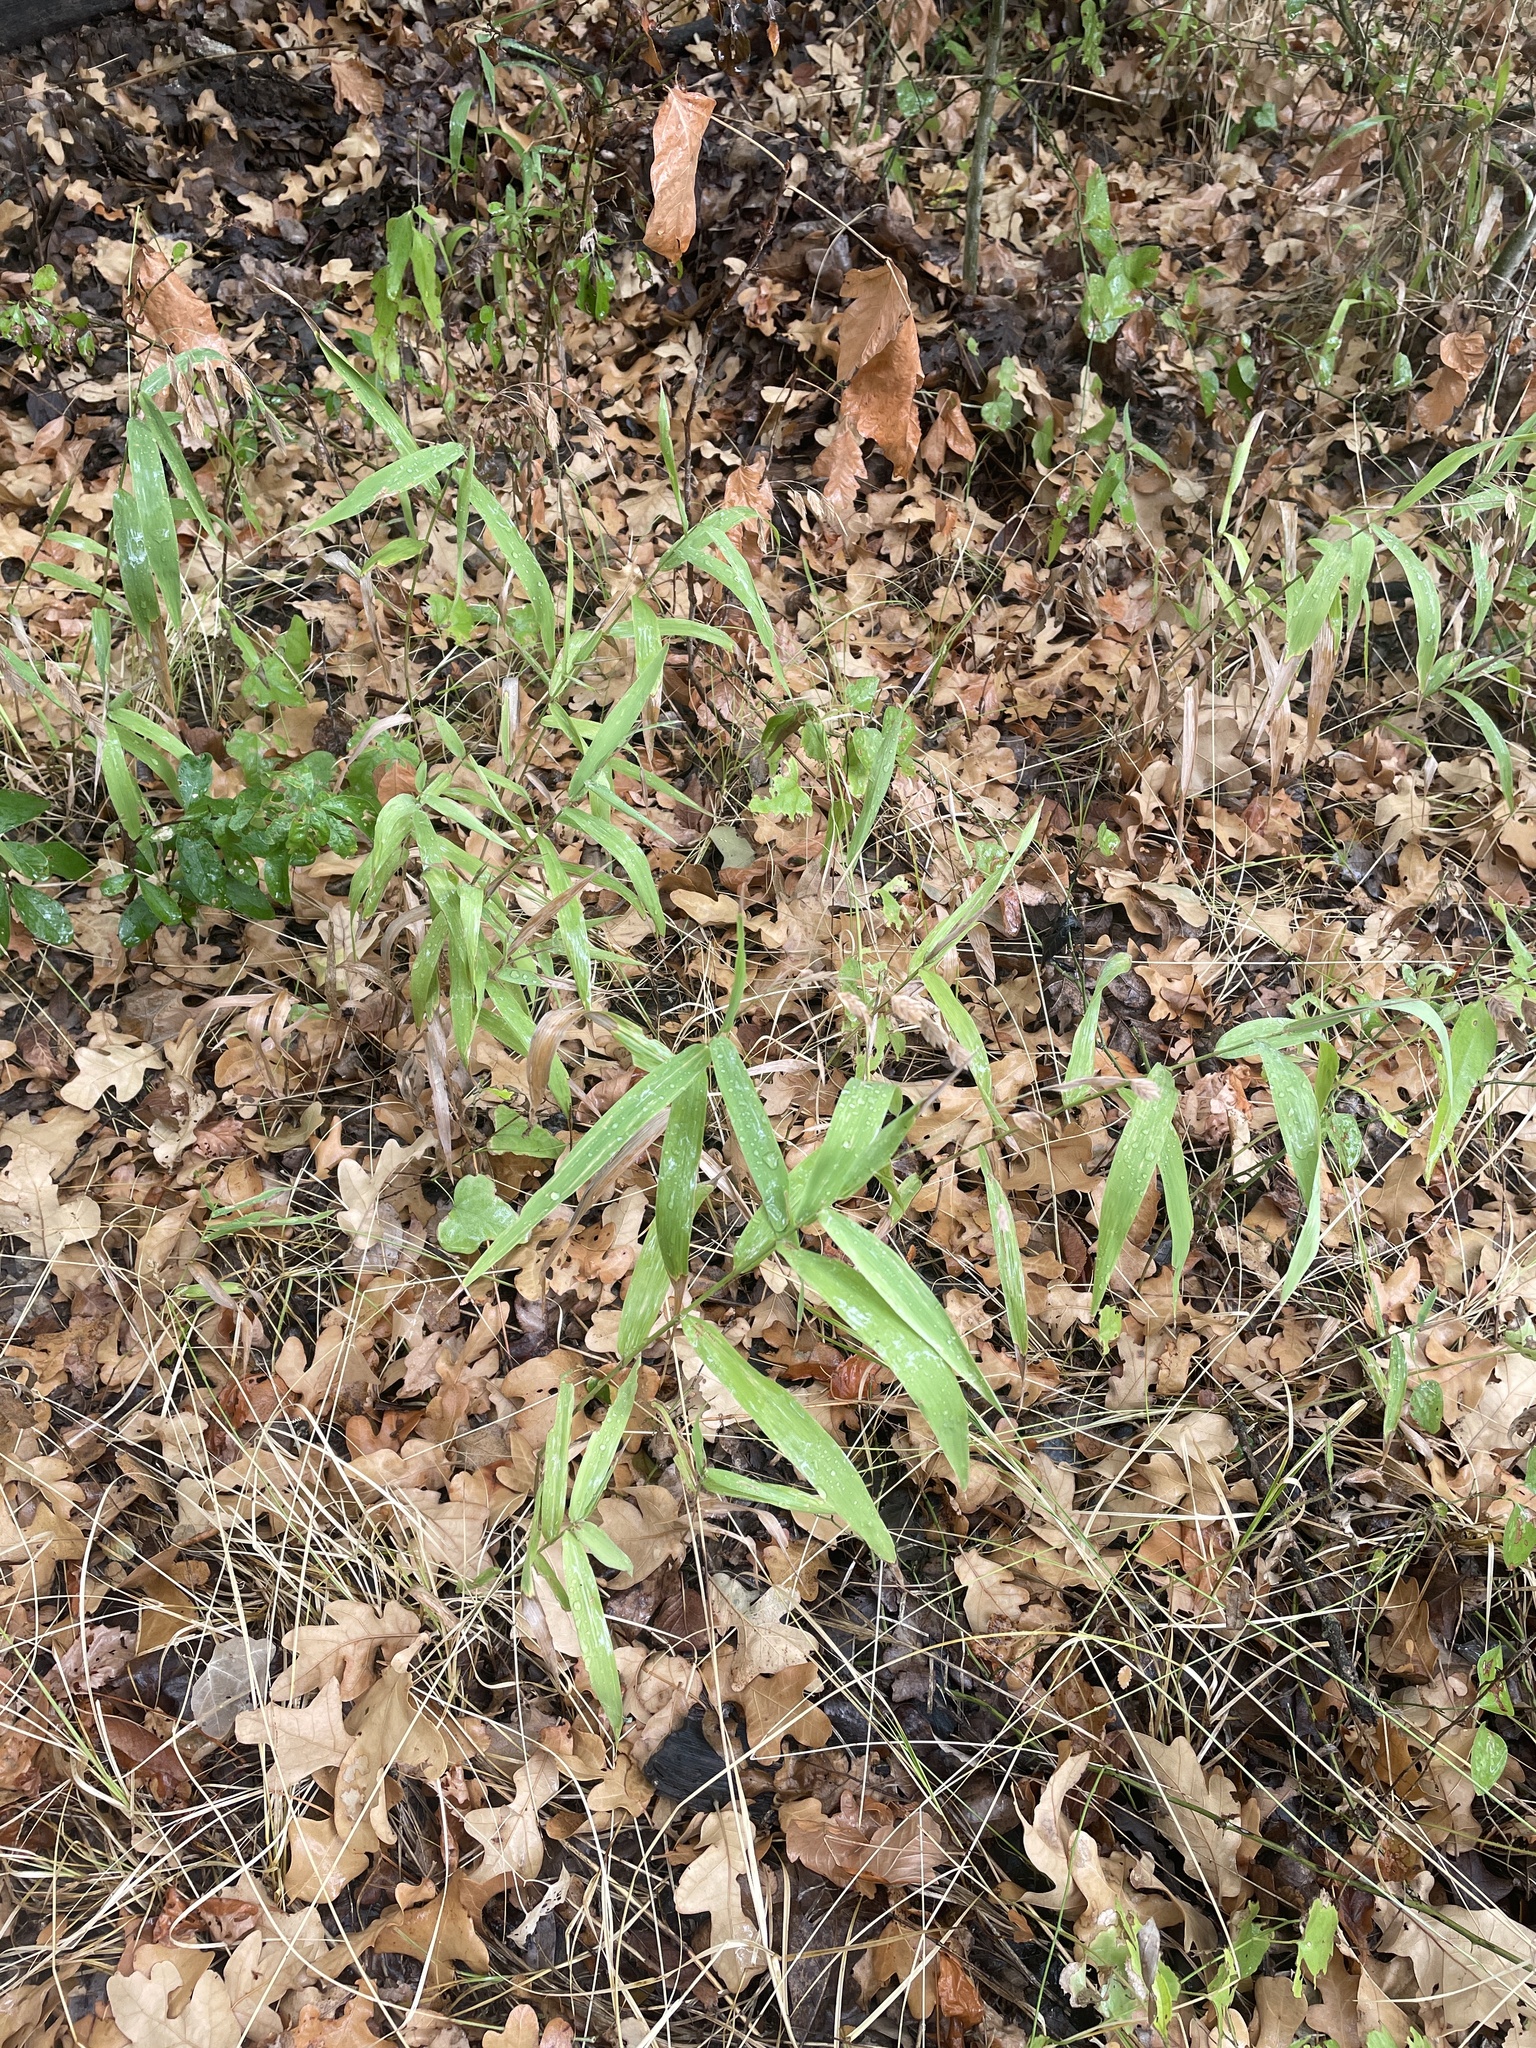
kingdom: Plantae
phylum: Tracheophyta
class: Liliopsida
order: Poales
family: Poaceae
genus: Chasmanthium
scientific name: Chasmanthium latifolium
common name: Broad-leaved chasmanthium
